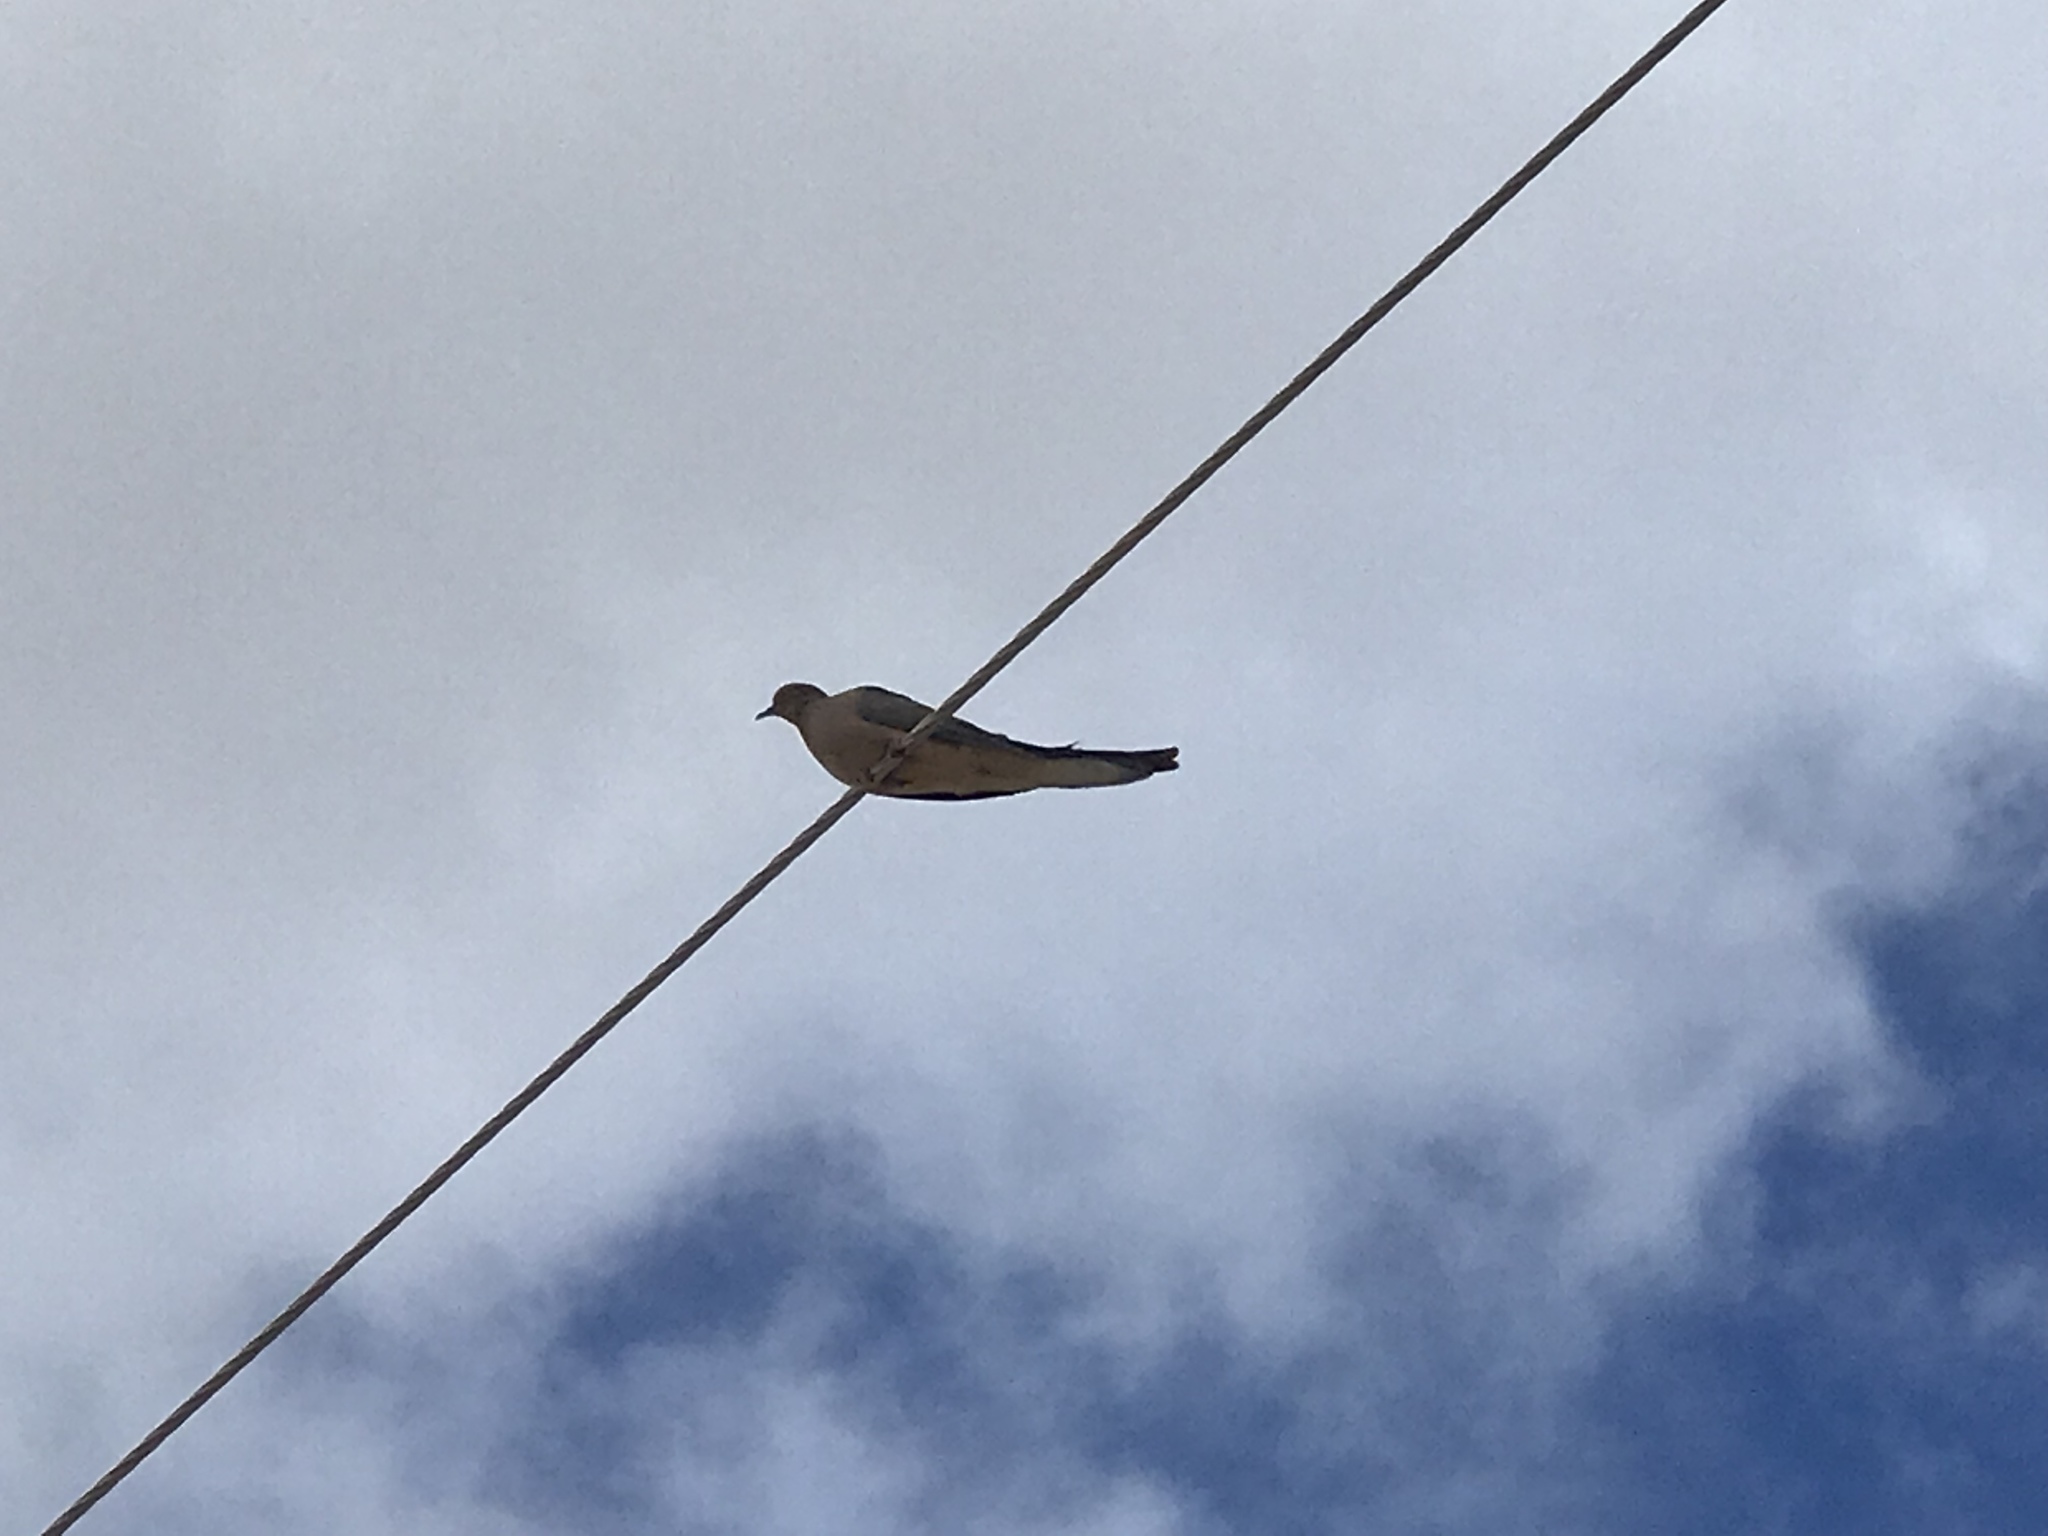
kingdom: Animalia
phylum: Chordata
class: Aves
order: Columbiformes
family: Columbidae
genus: Zenaida
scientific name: Zenaida macroura
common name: Mourning dove
